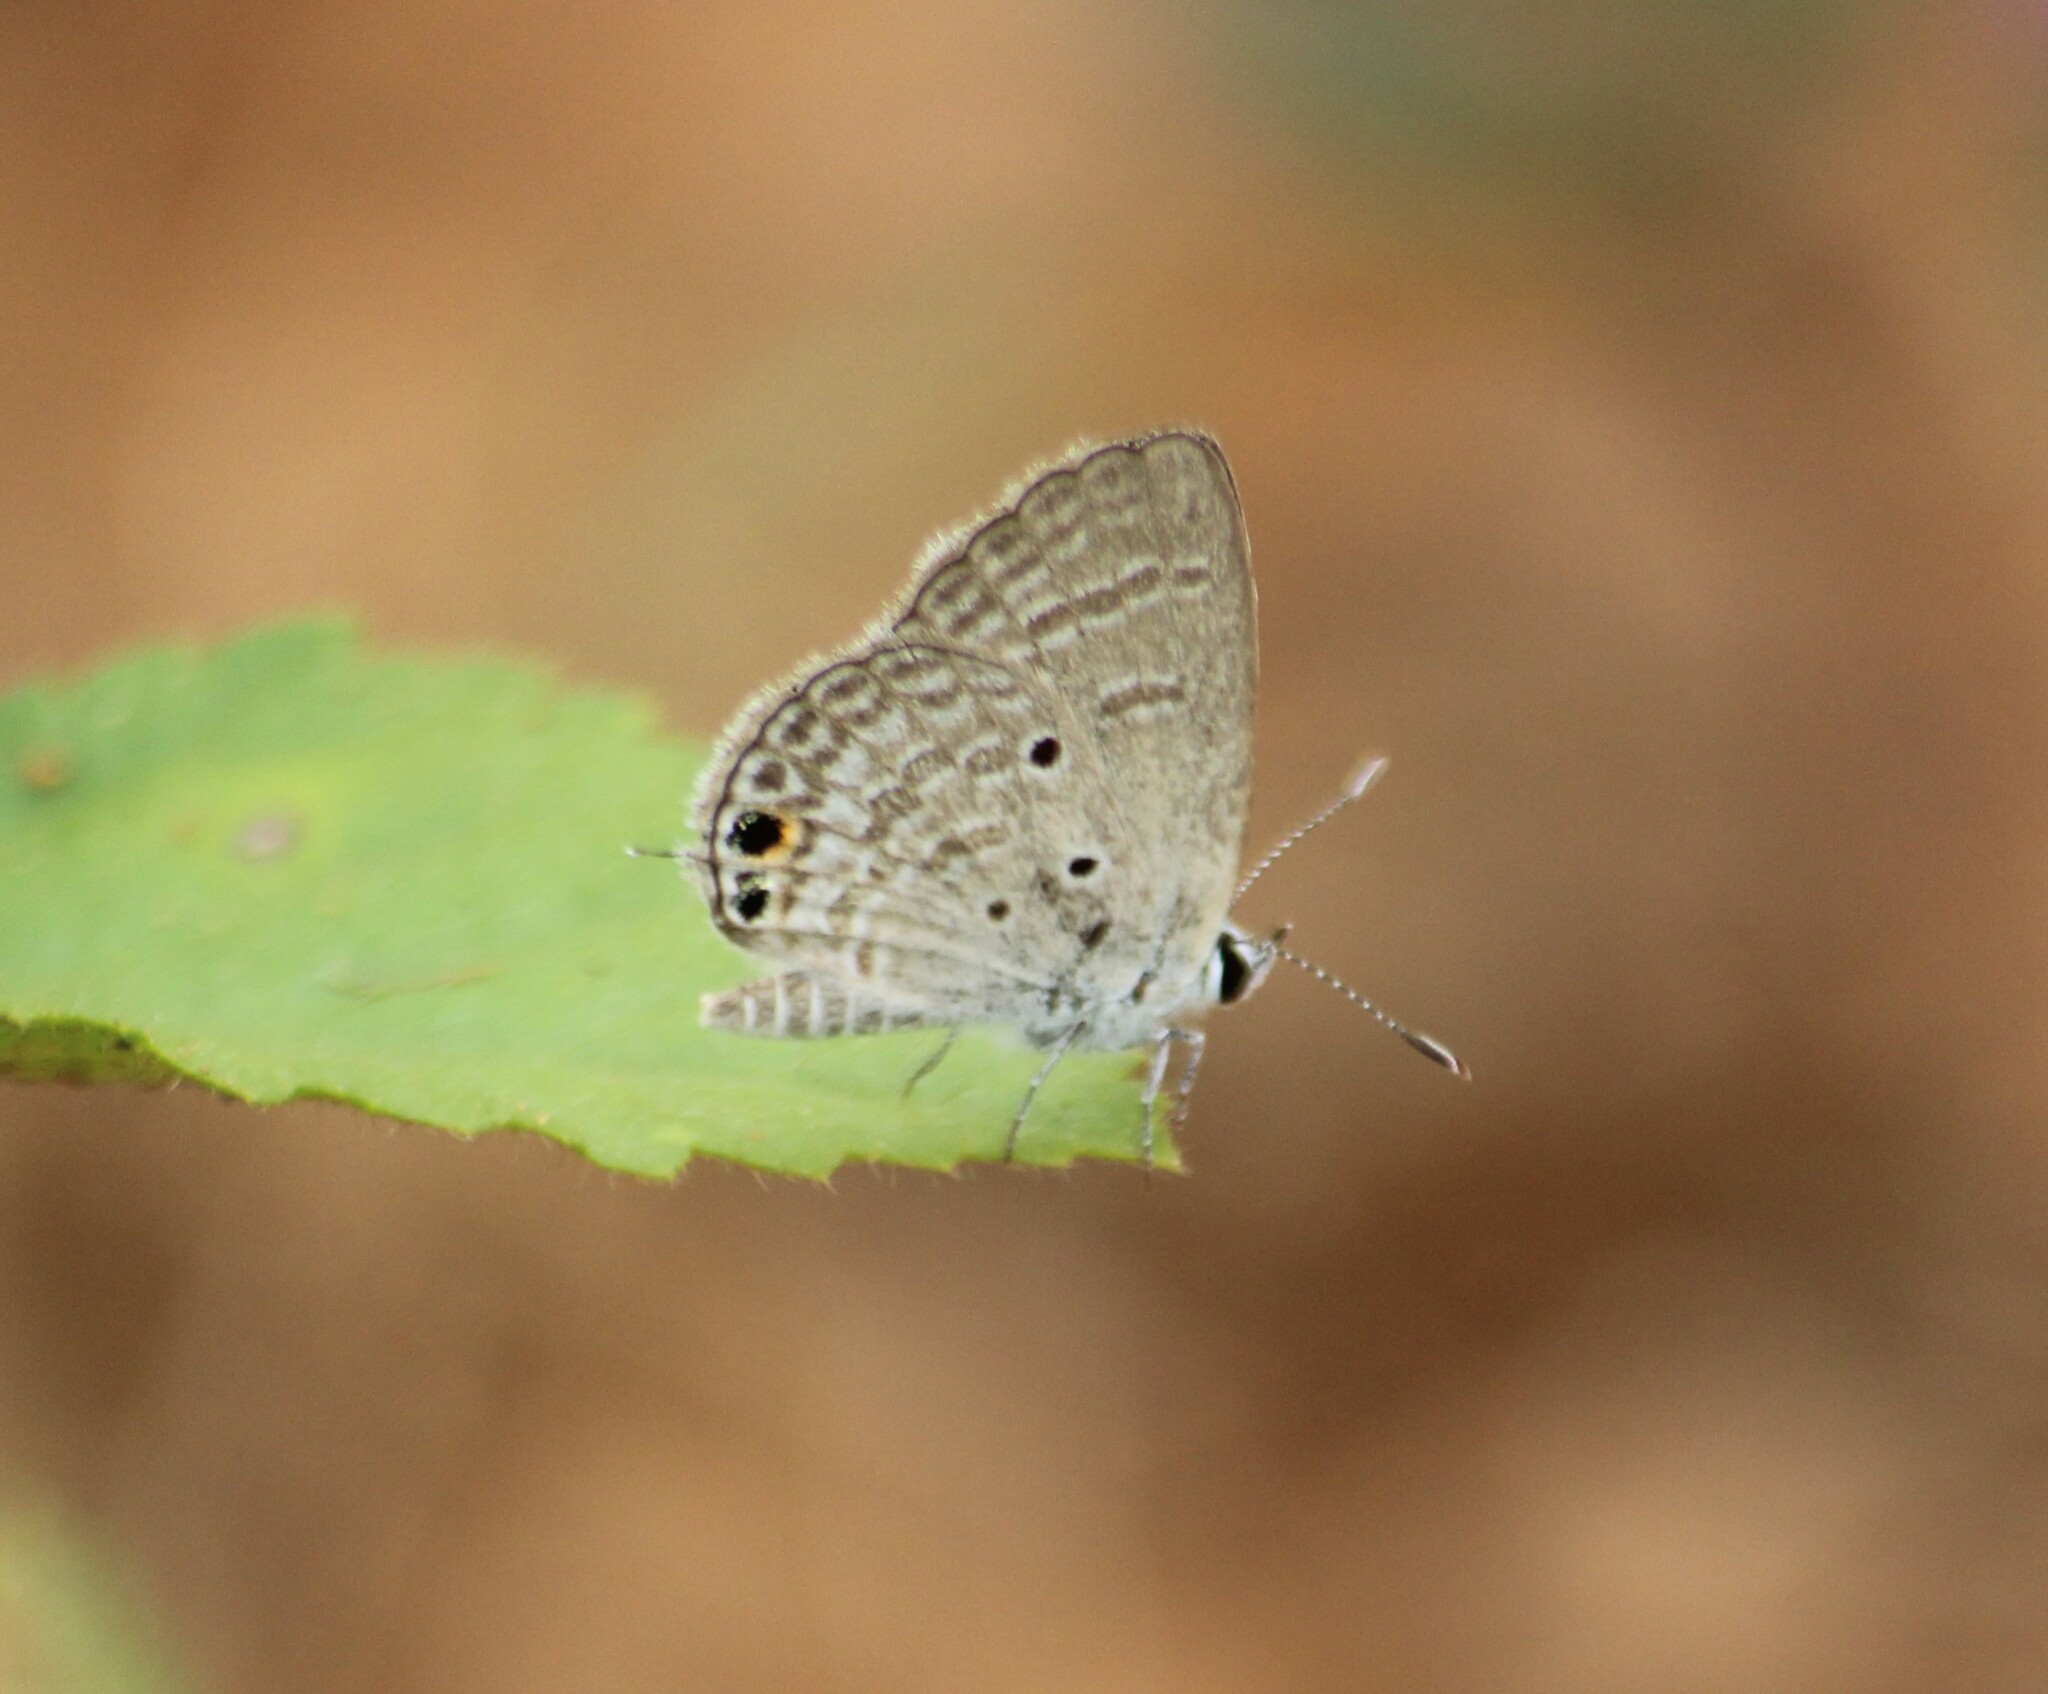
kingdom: Animalia
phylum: Arthropoda
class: Insecta
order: Lepidoptera
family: Lycaenidae
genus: Chilades
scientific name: Chilades parrhasius
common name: Small cupid
